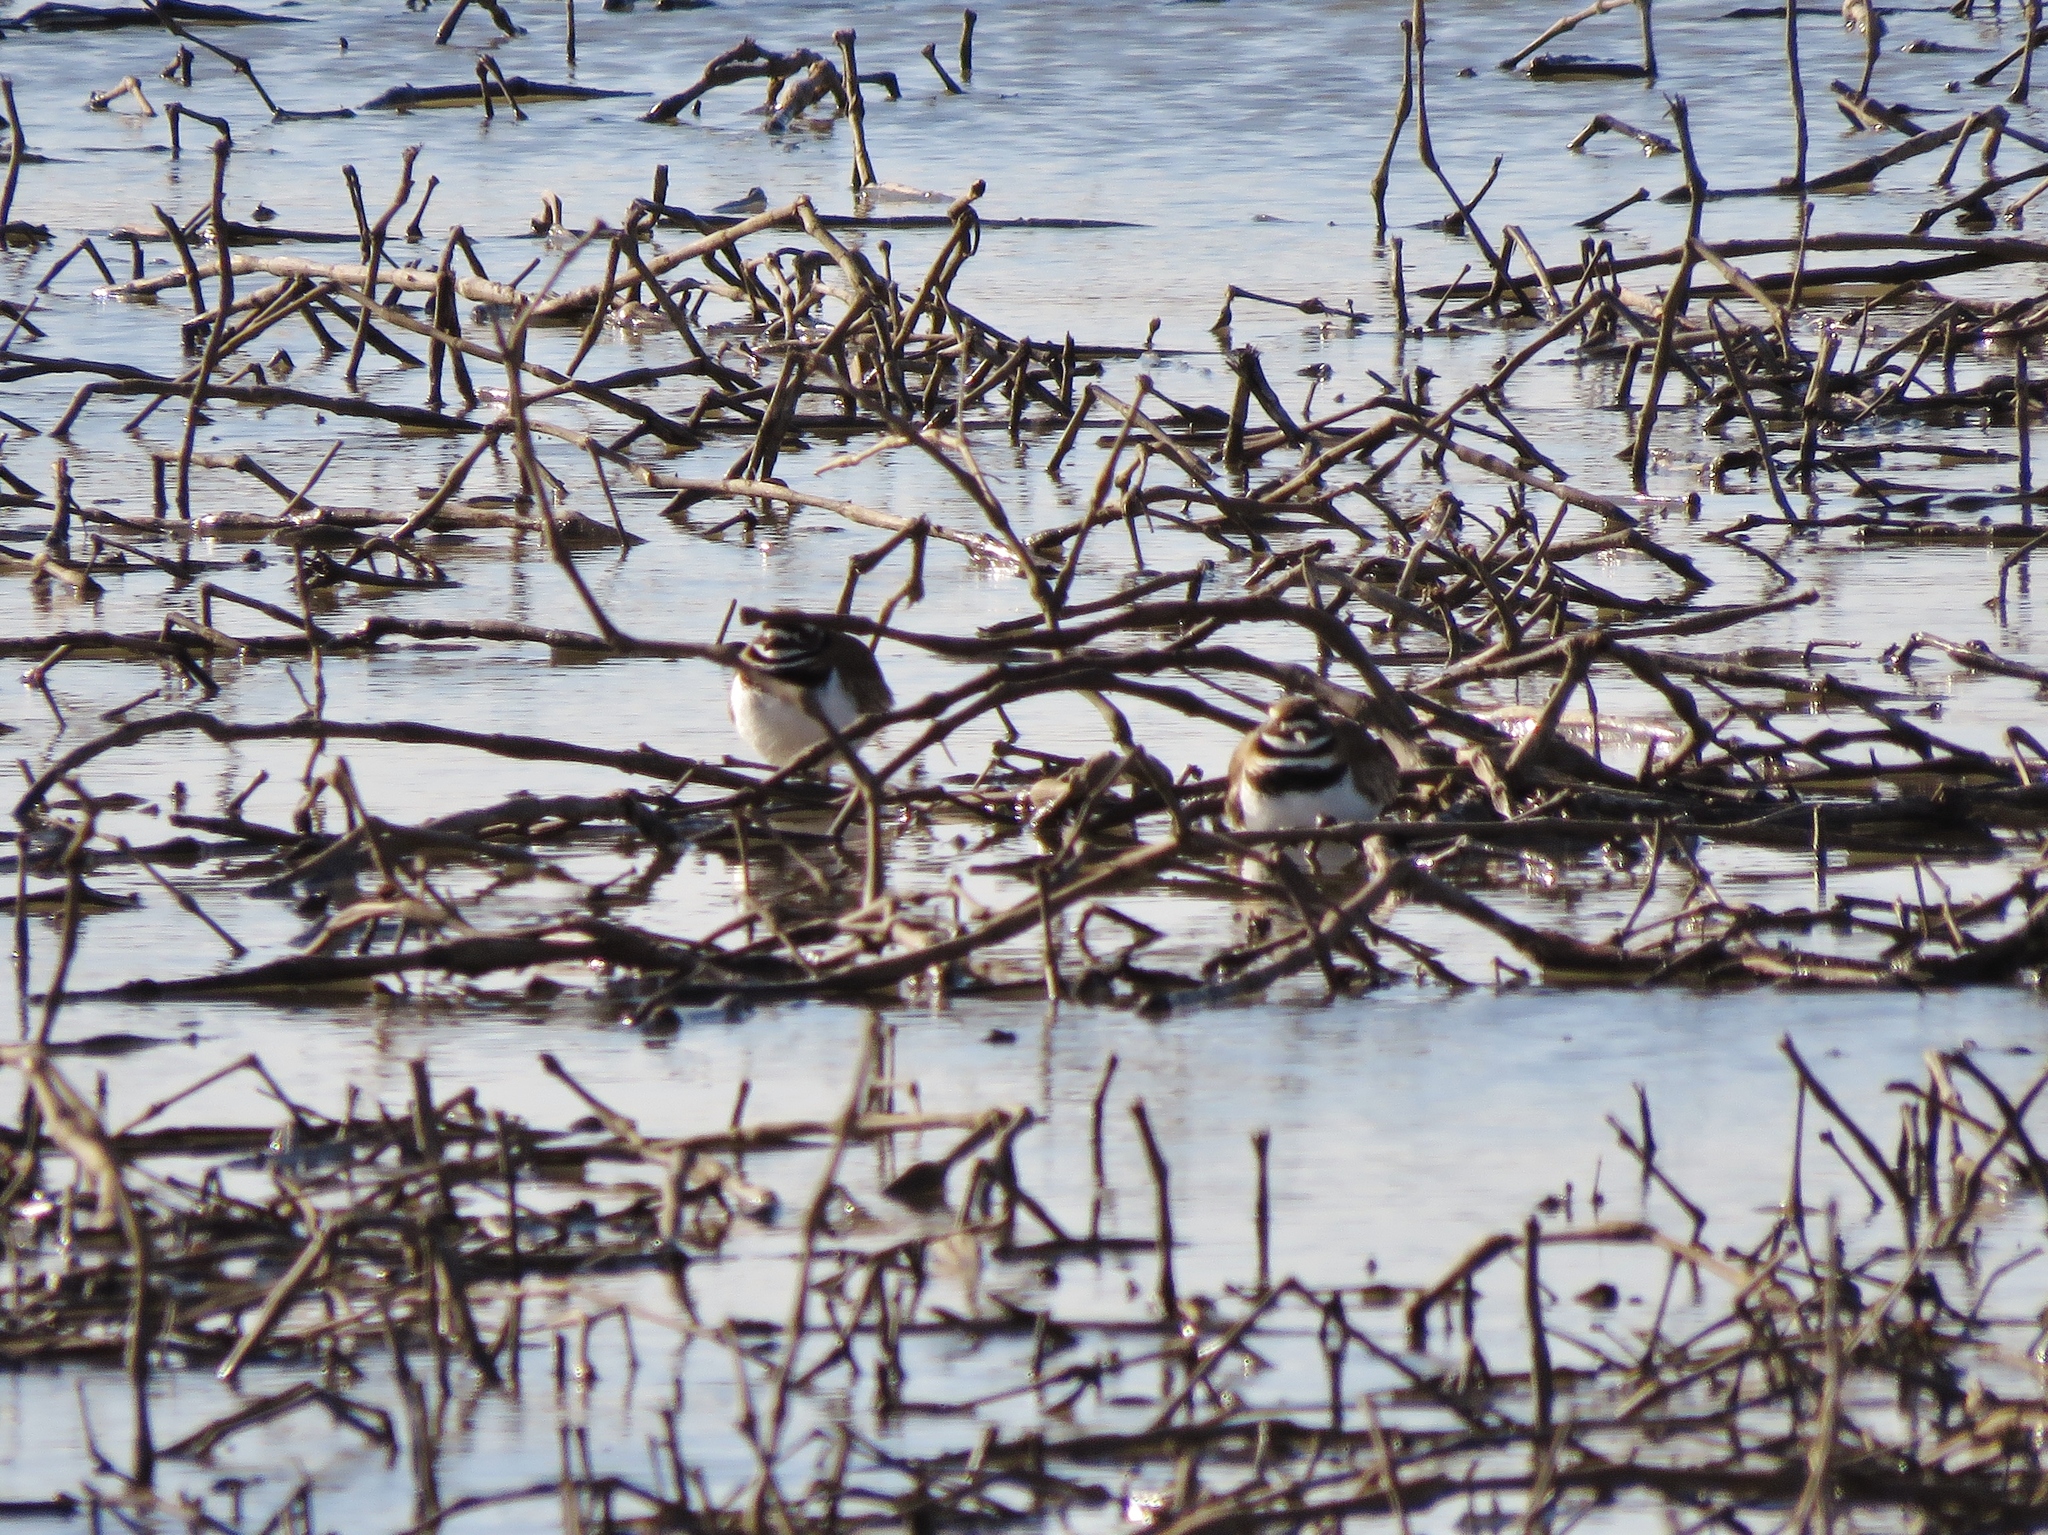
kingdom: Animalia
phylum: Chordata
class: Aves
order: Charadriiformes
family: Charadriidae
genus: Charadrius
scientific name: Charadrius vociferus
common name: Killdeer
